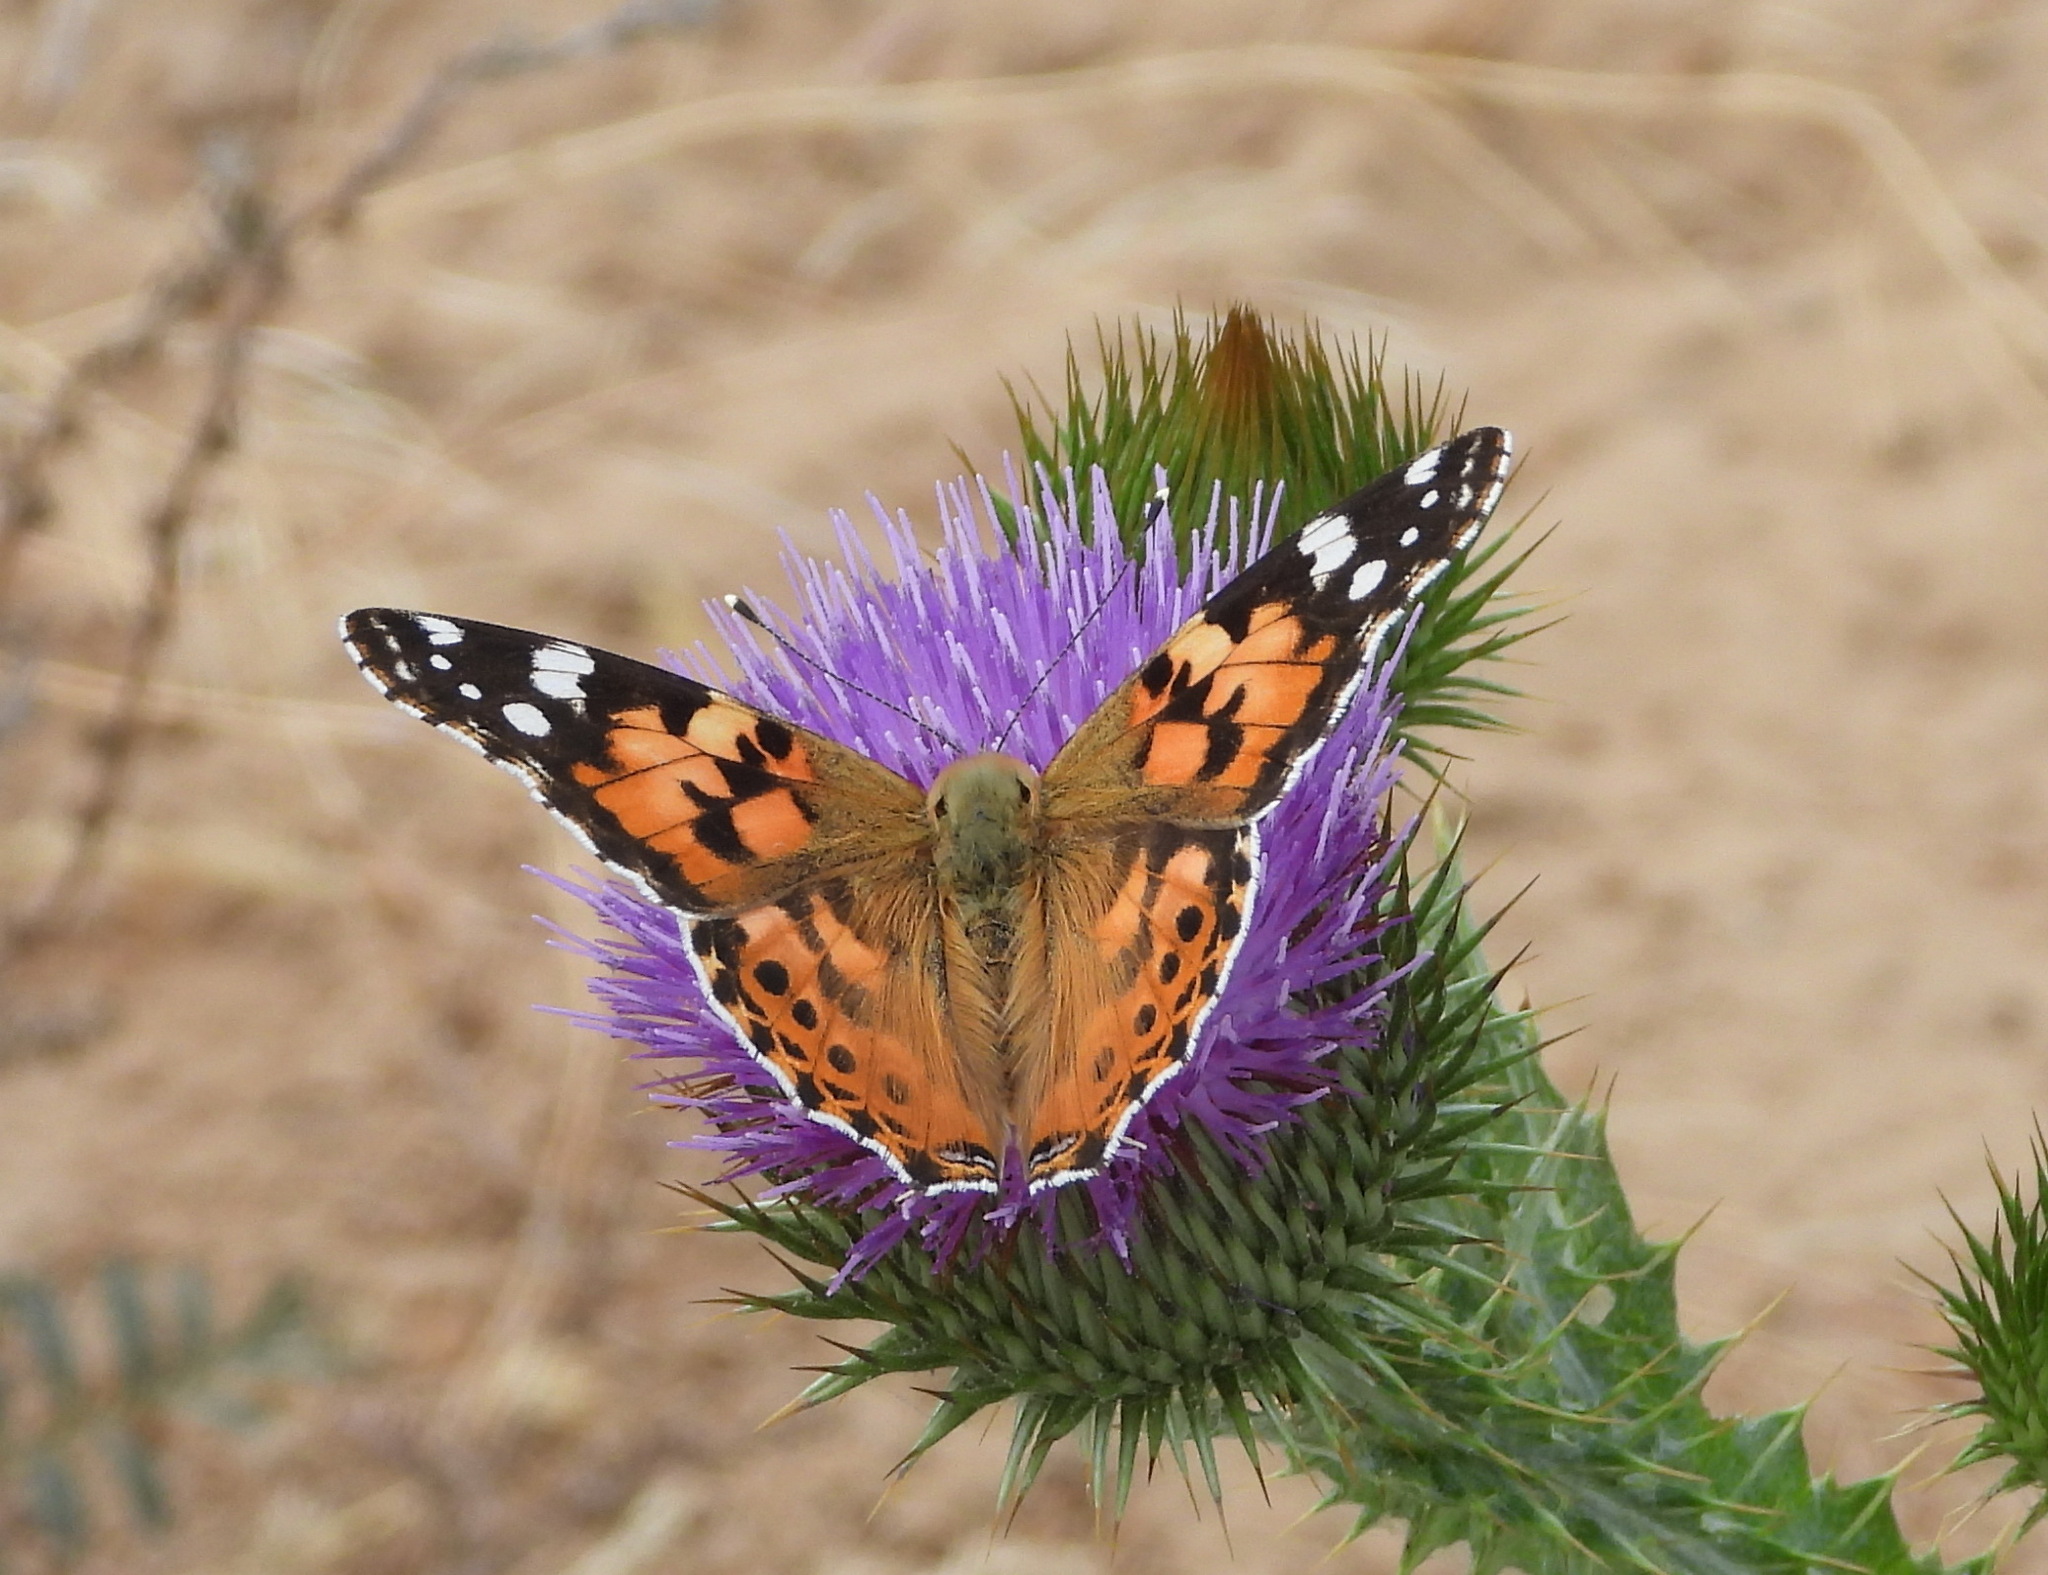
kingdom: Animalia
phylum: Arthropoda
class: Insecta
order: Lepidoptera
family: Nymphalidae
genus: Vanessa
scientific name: Vanessa cardui
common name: Painted lady
